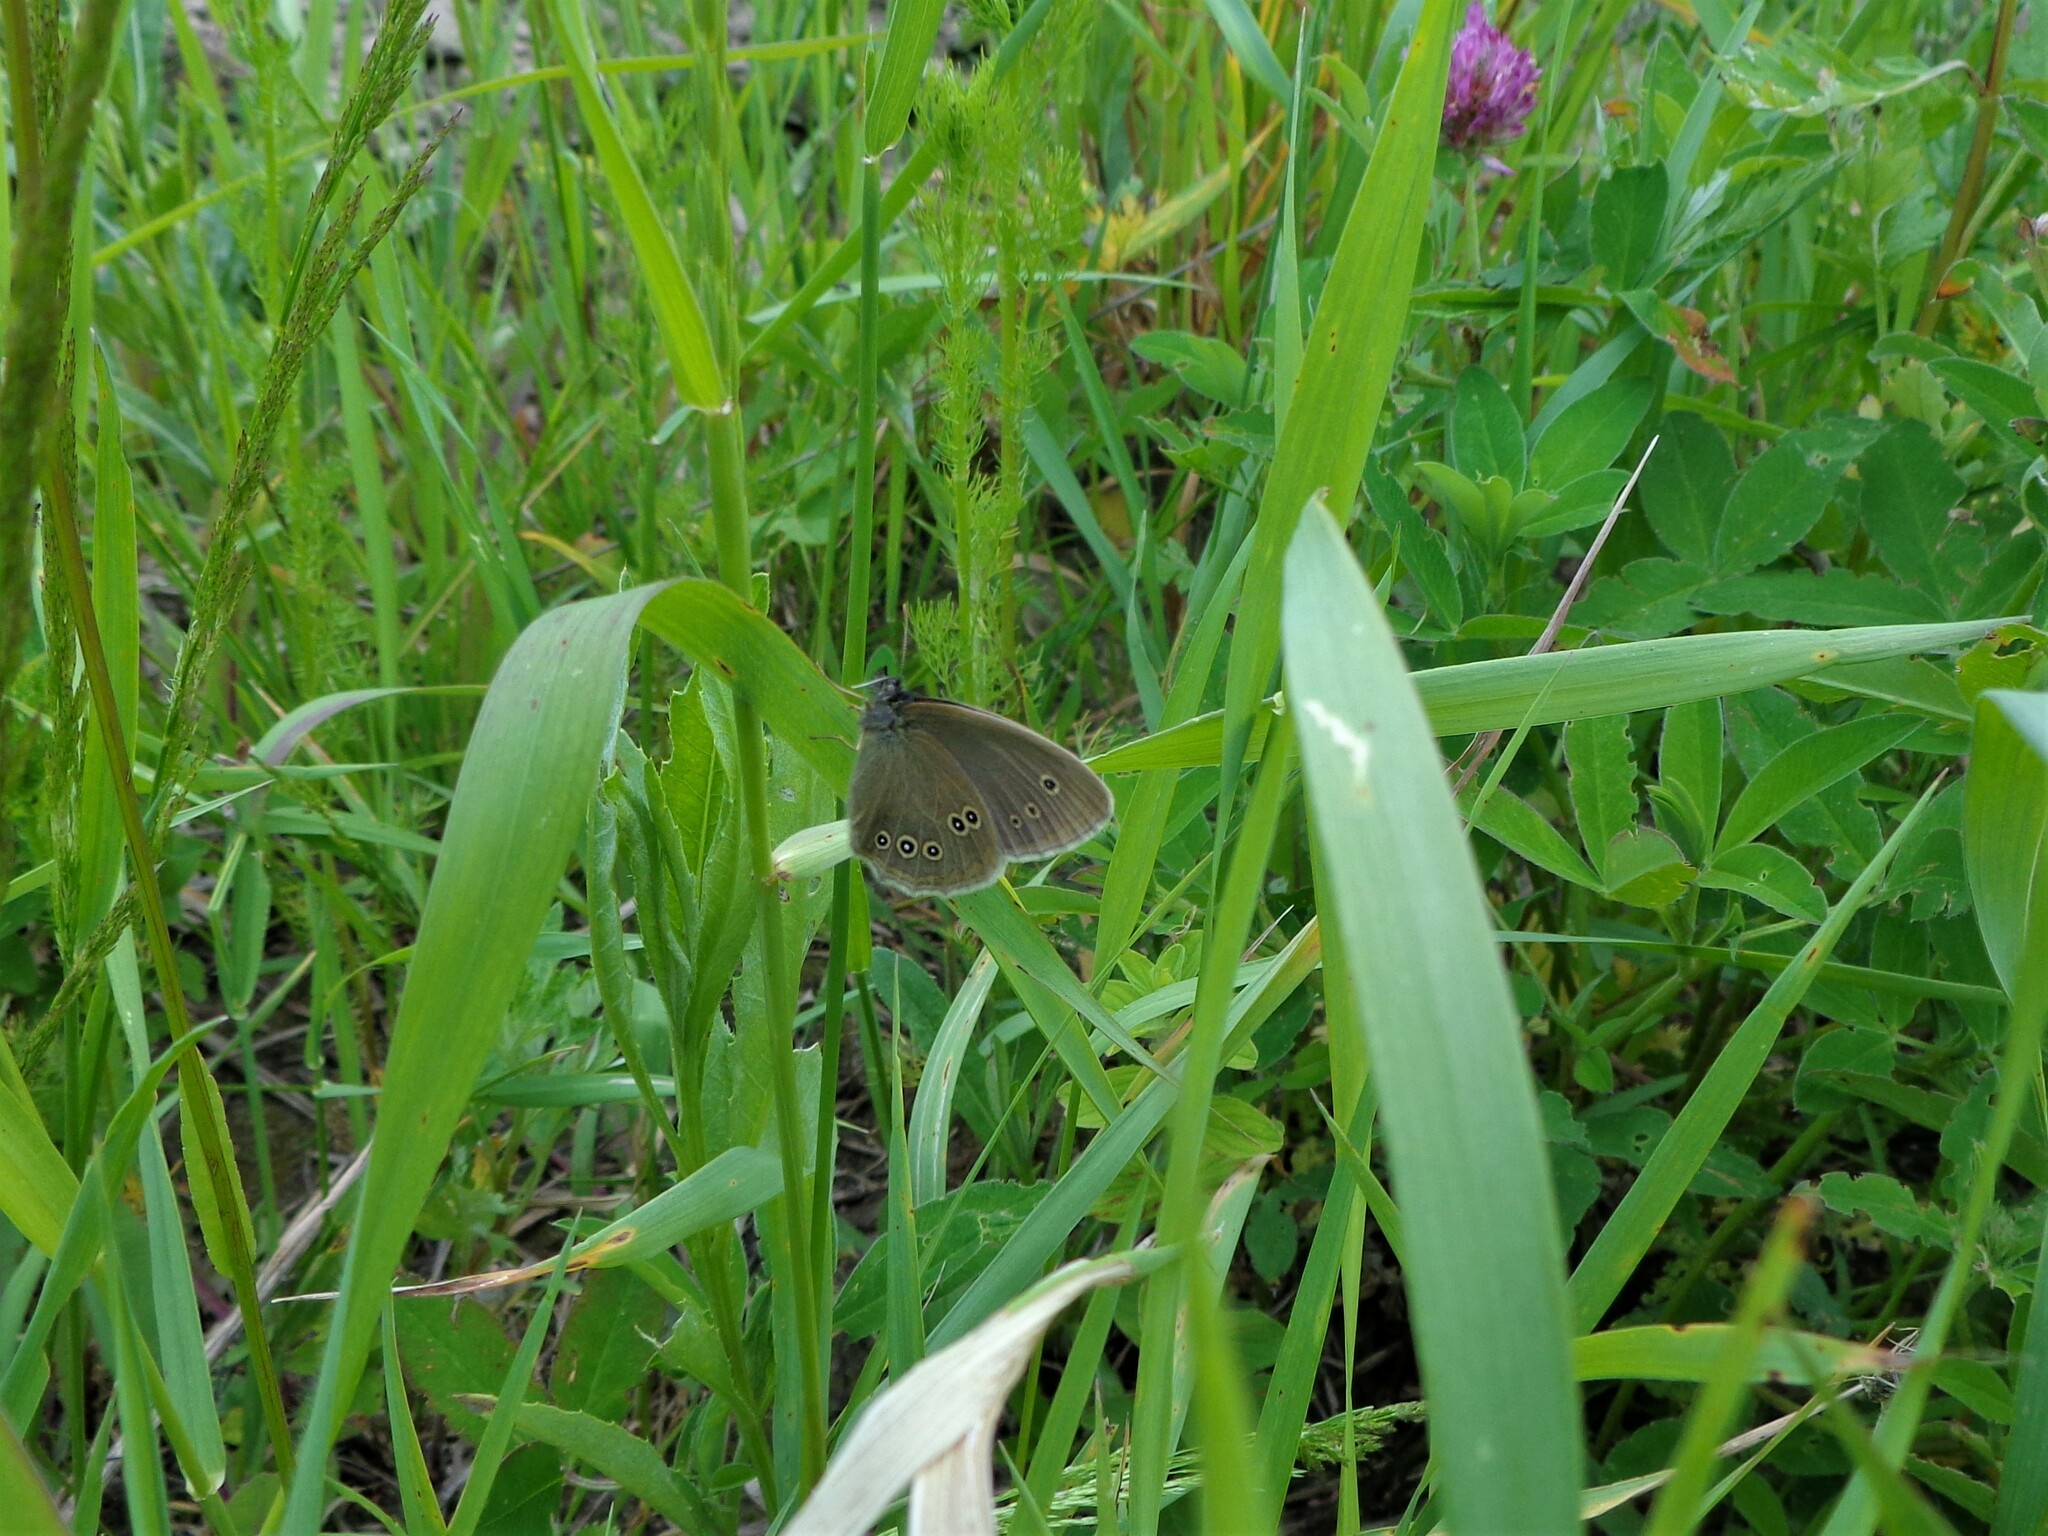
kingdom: Animalia
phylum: Arthropoda
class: Insecta
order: Lepidoptera
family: Nymphalidae
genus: Aphantopus
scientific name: Aphantopus hyperantus
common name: Ringlet
